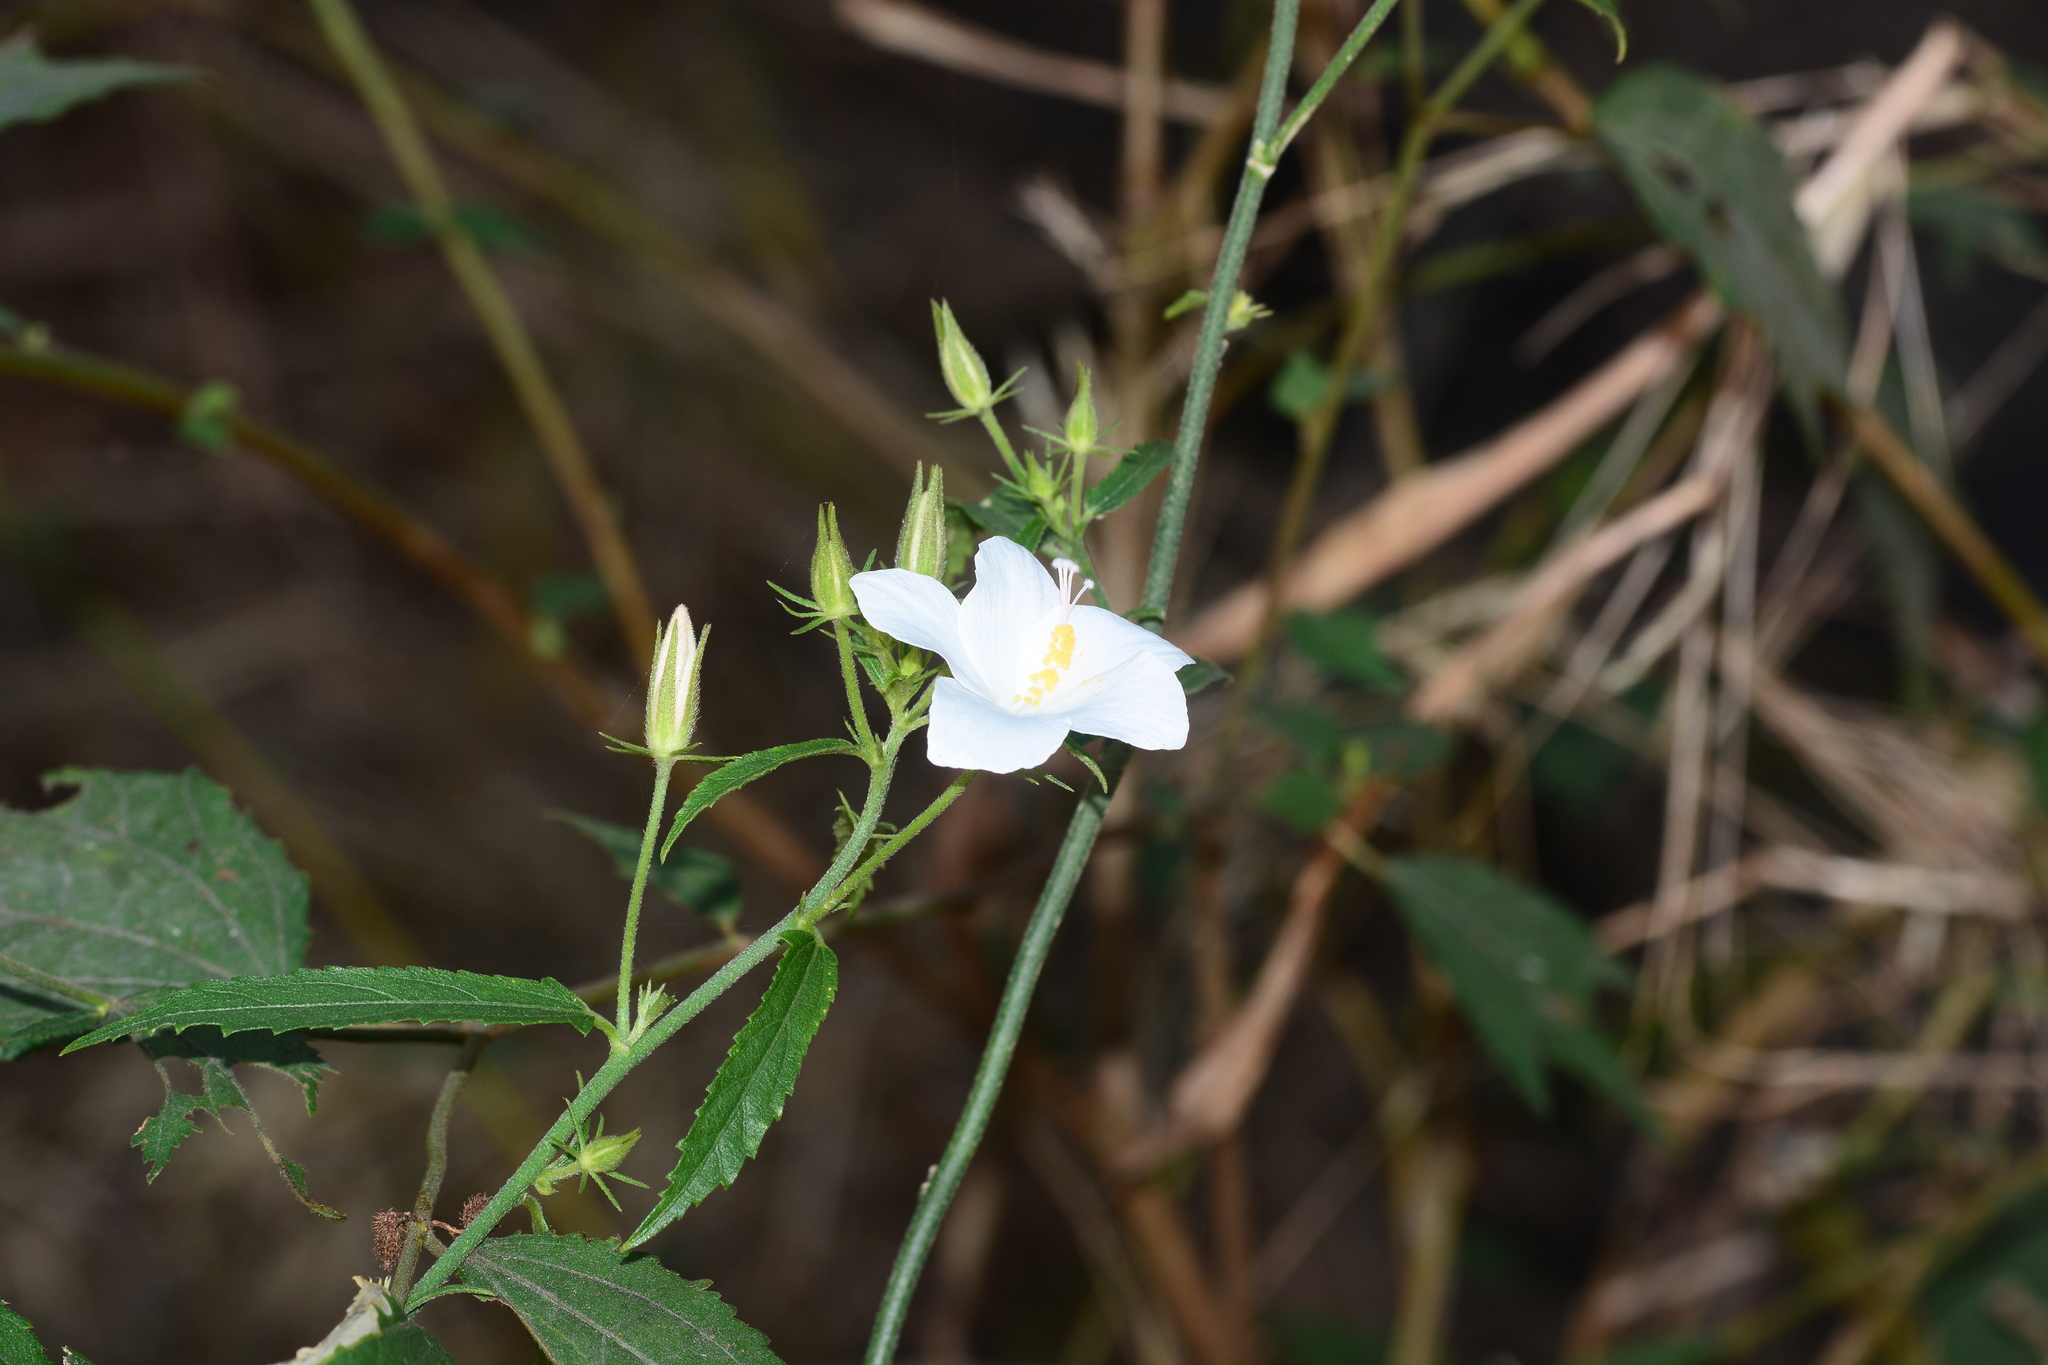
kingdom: Plantae
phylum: Tracheophyta
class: Magnoliopsida
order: Malvales
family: Malvaceae
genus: Hibiscus
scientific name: Hibiscus hirtus
